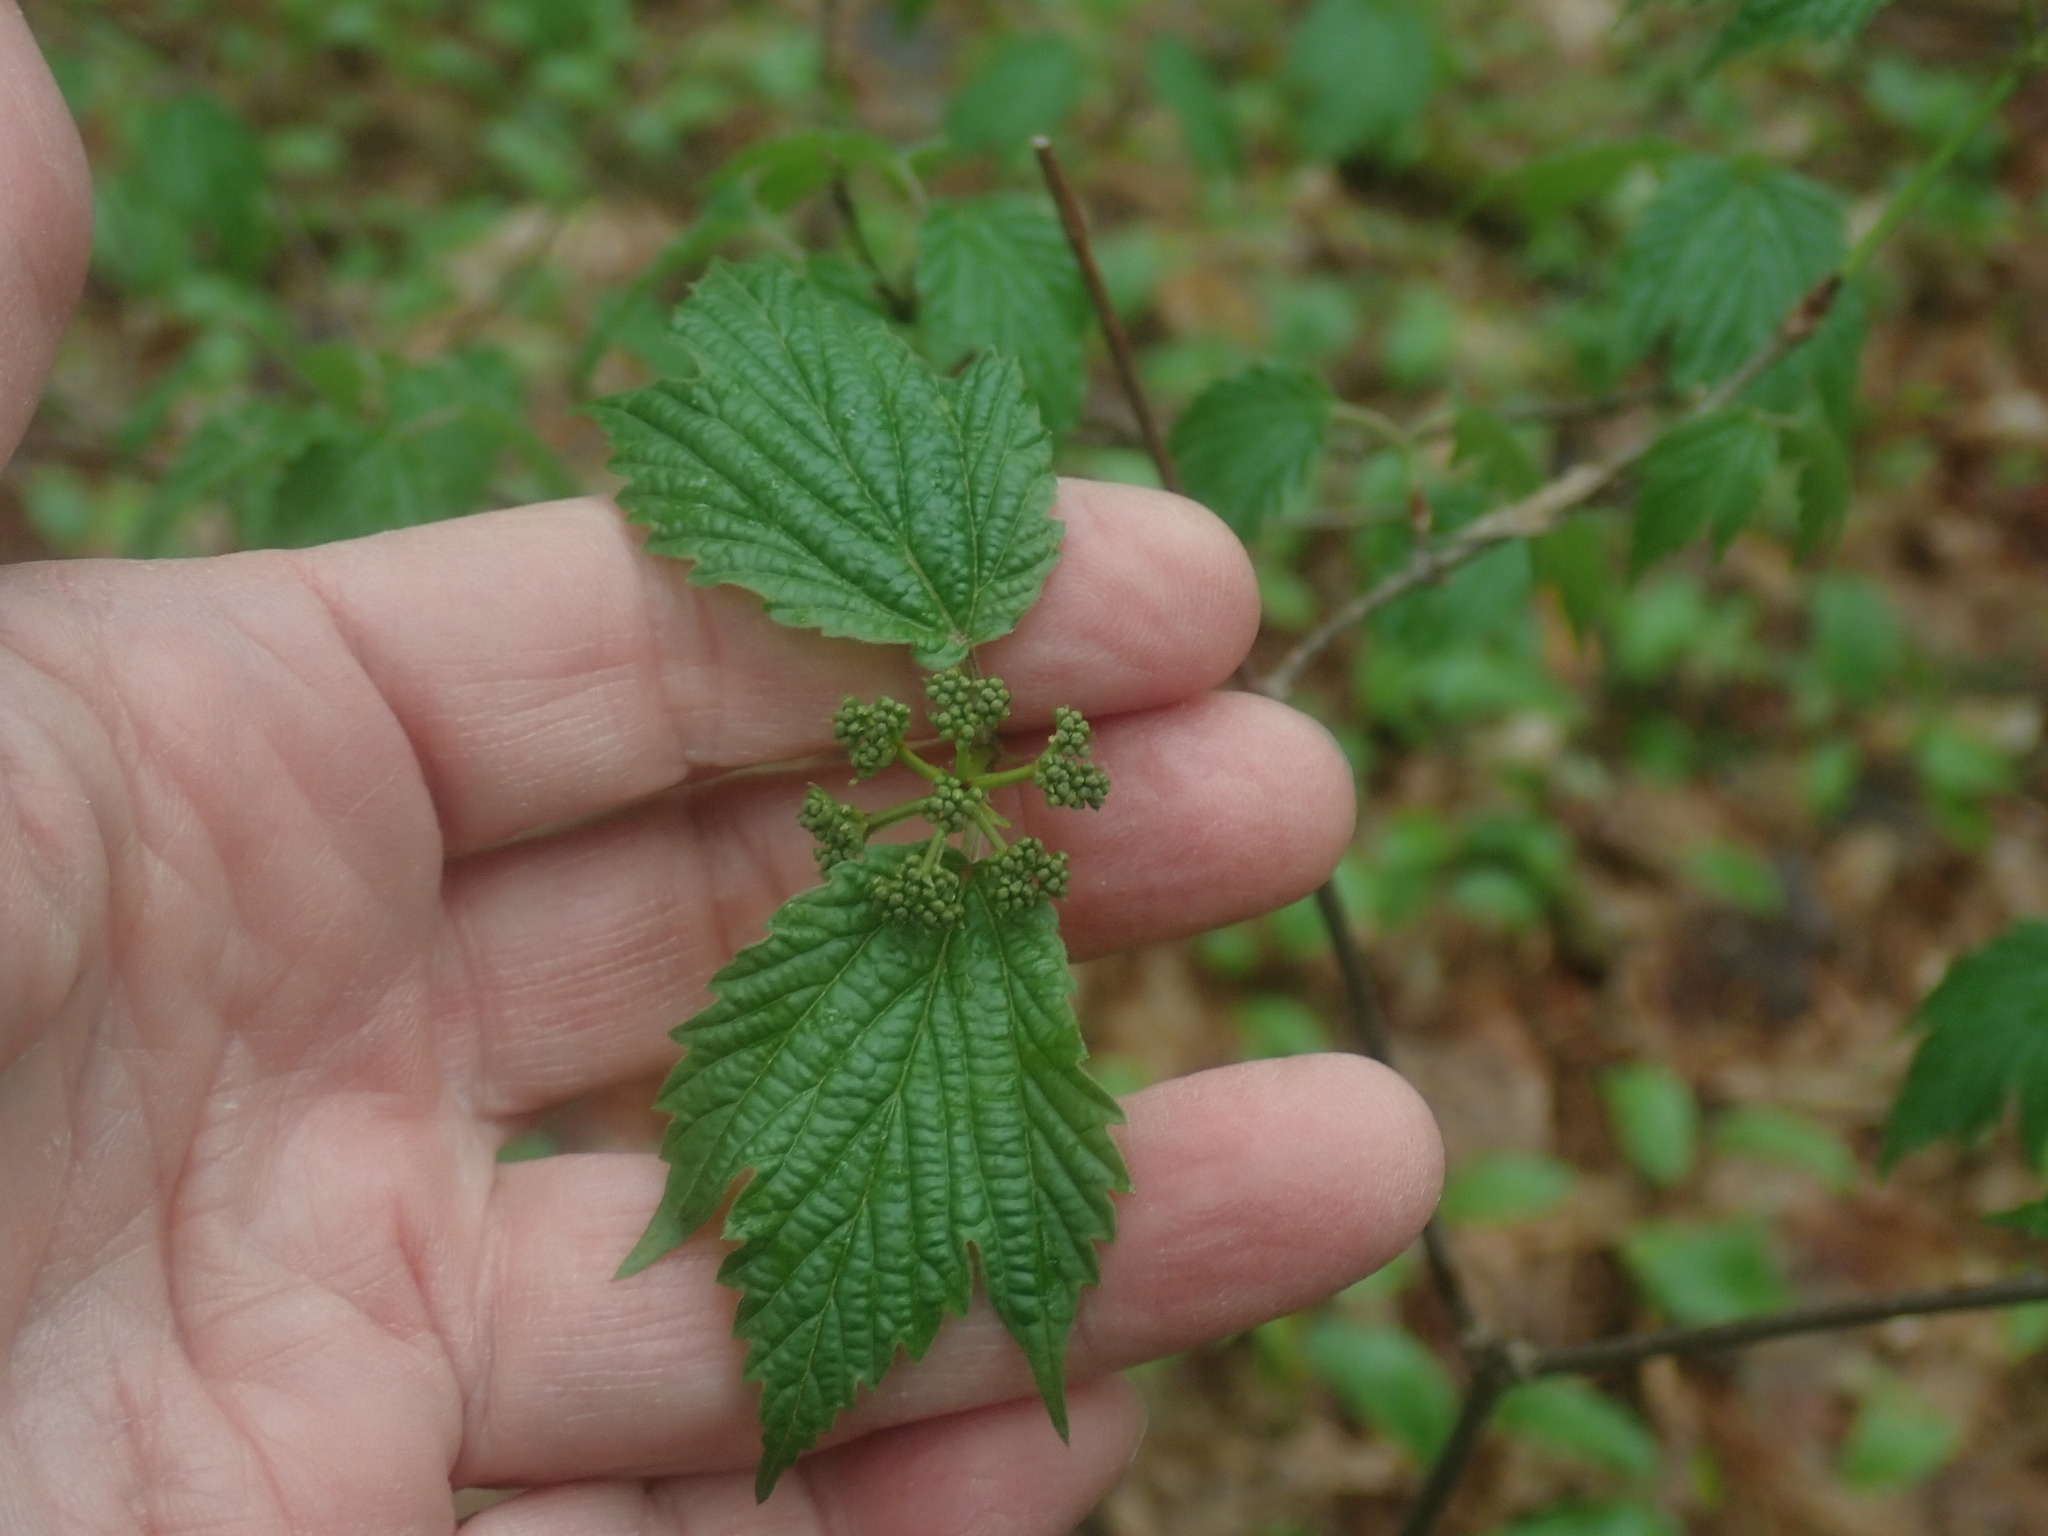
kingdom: Plantae
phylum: Tracheophyta
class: Magnoliopsida
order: Dipsacales
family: Viburnaceae
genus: Viburnum
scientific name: Viburnum acerifolium
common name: Dockmackie
